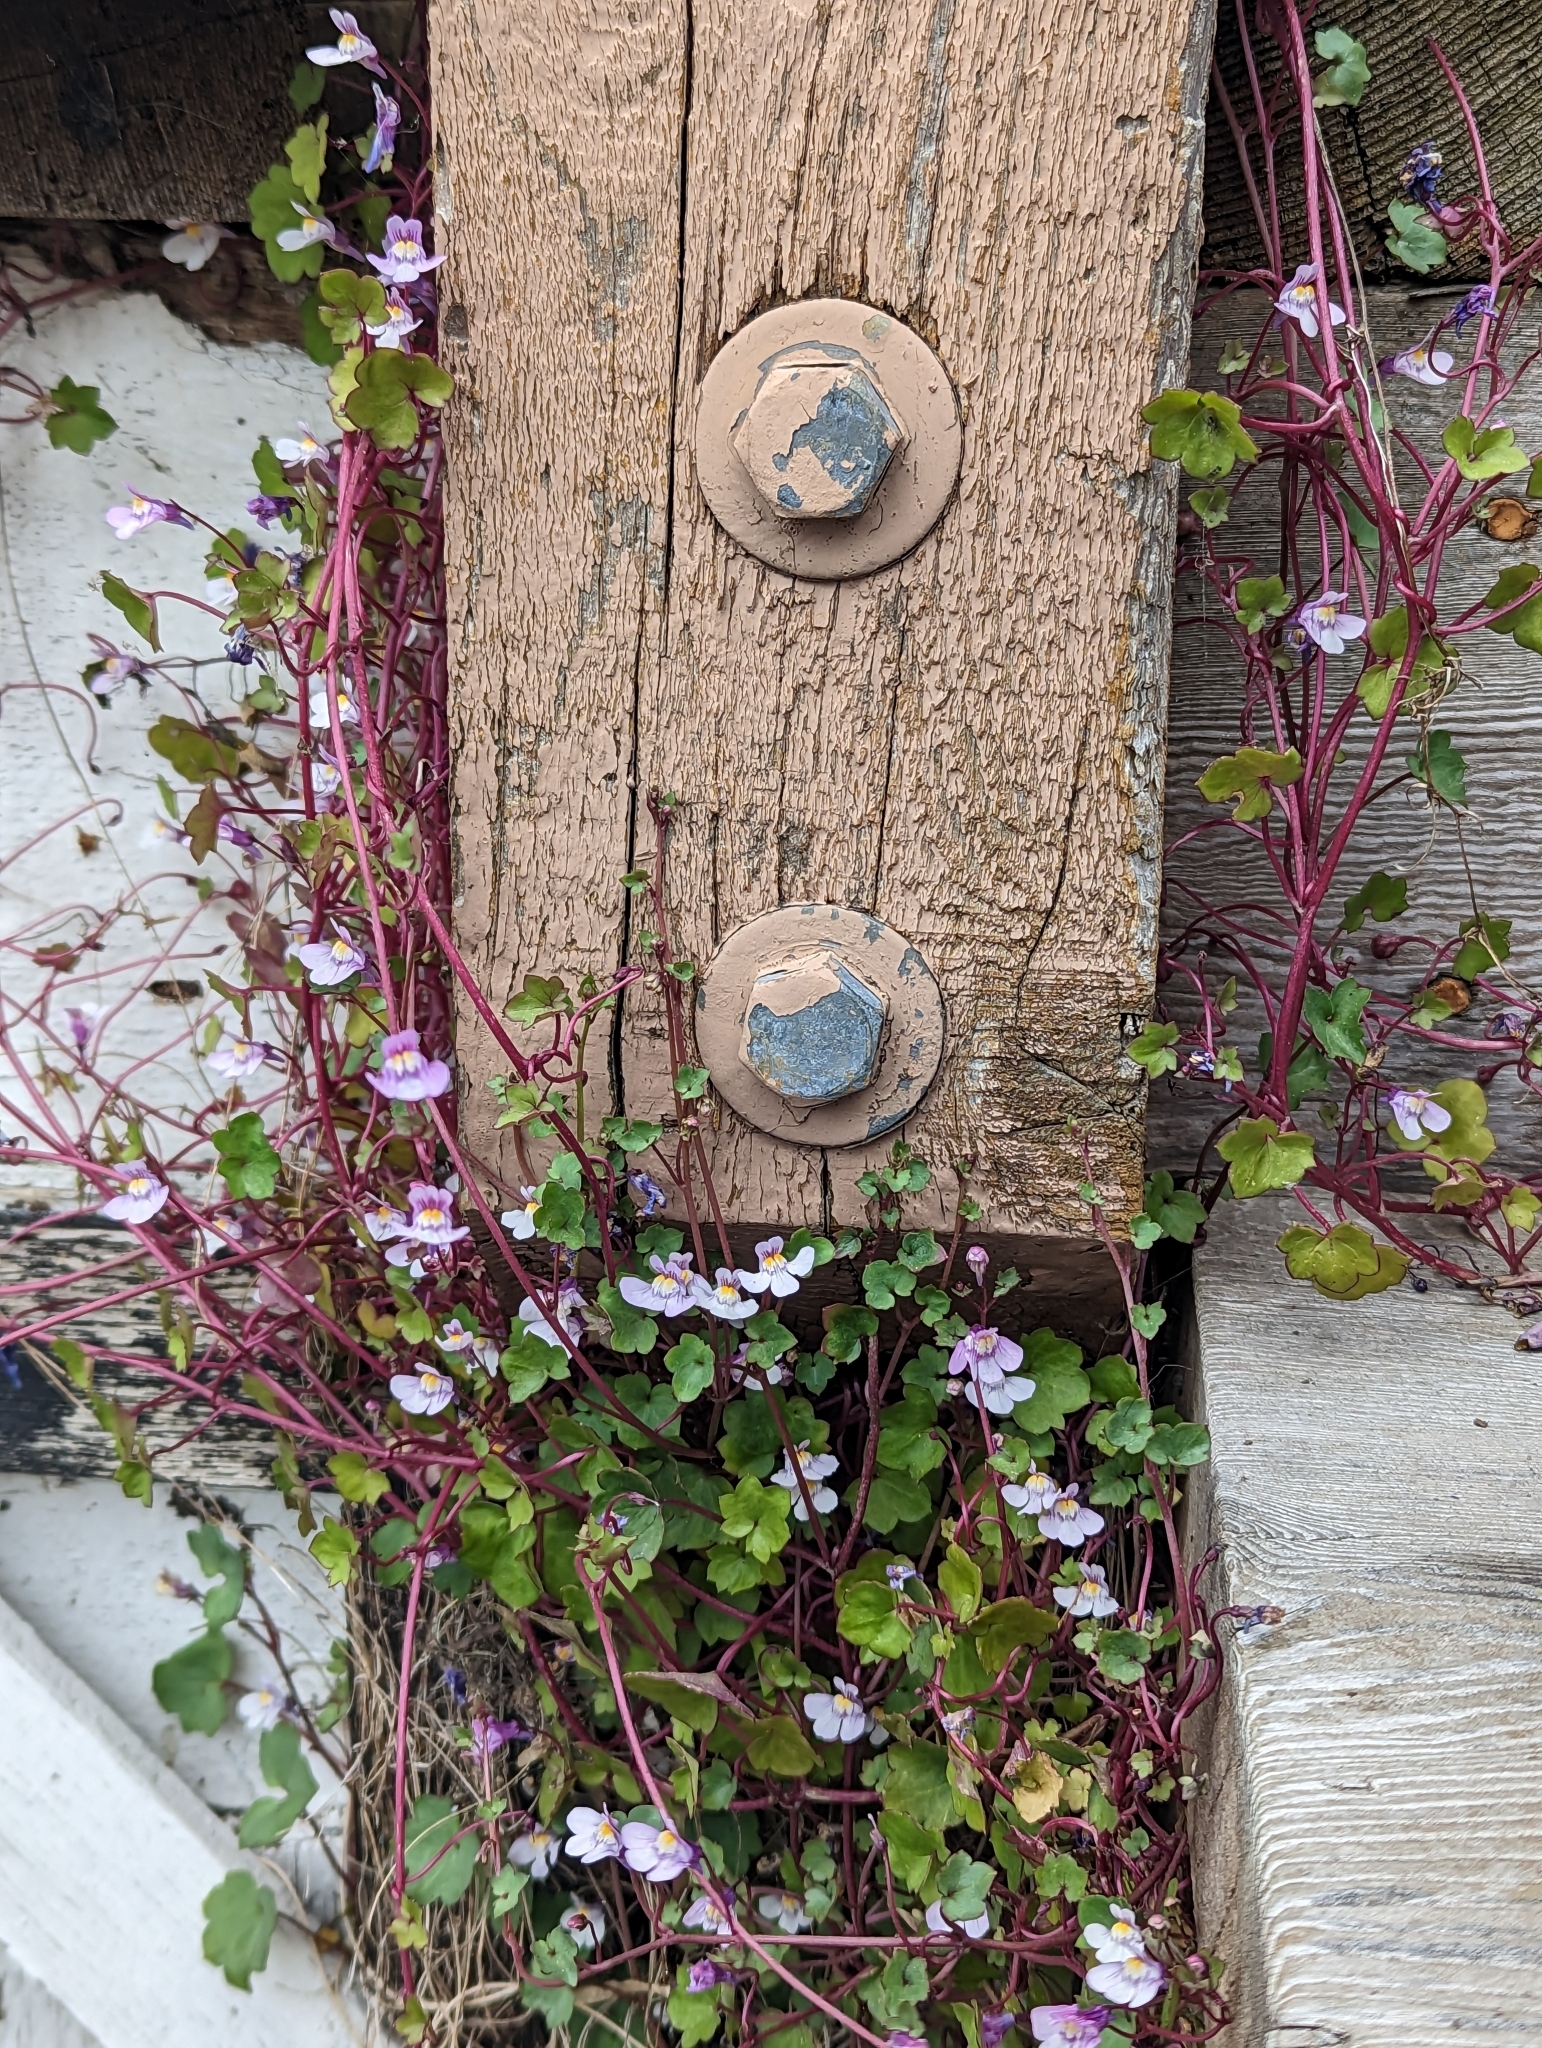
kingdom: Plantae
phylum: Tracheophyta
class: Magnoliopsida
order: Lamiales
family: Plantaginaceae
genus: Cymbalaria
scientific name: Cymbalaria muralis
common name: Ivy-leaved toadflax
